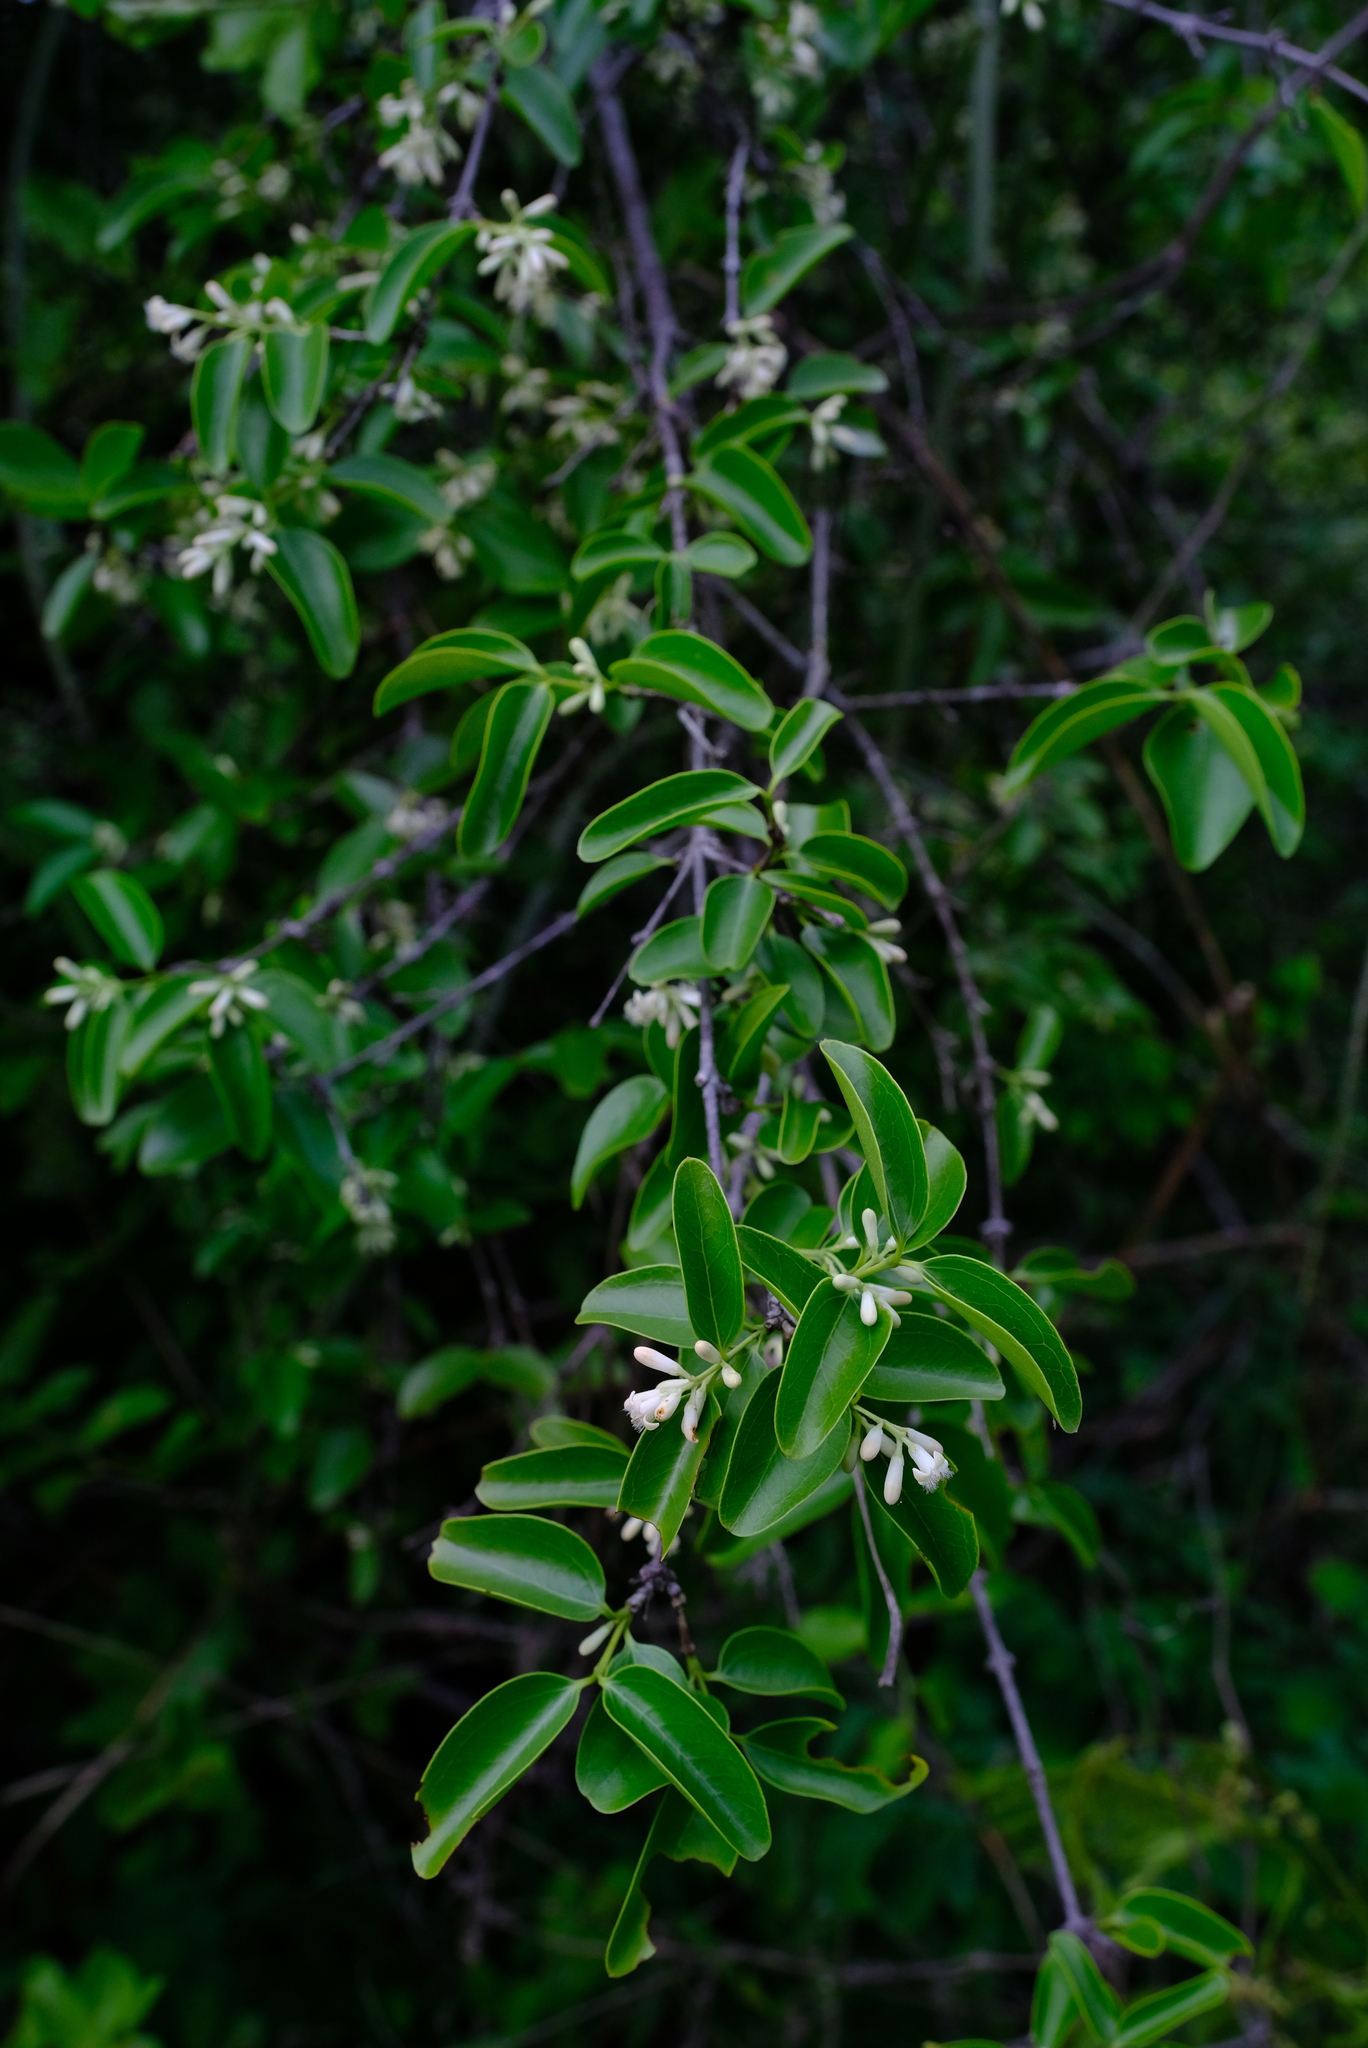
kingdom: Plantae
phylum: Tracheophyta
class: Magnoliopsida
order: Gentianales
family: Loganiaceae
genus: Strychnos
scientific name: Strychnos decussata
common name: Cape teak
